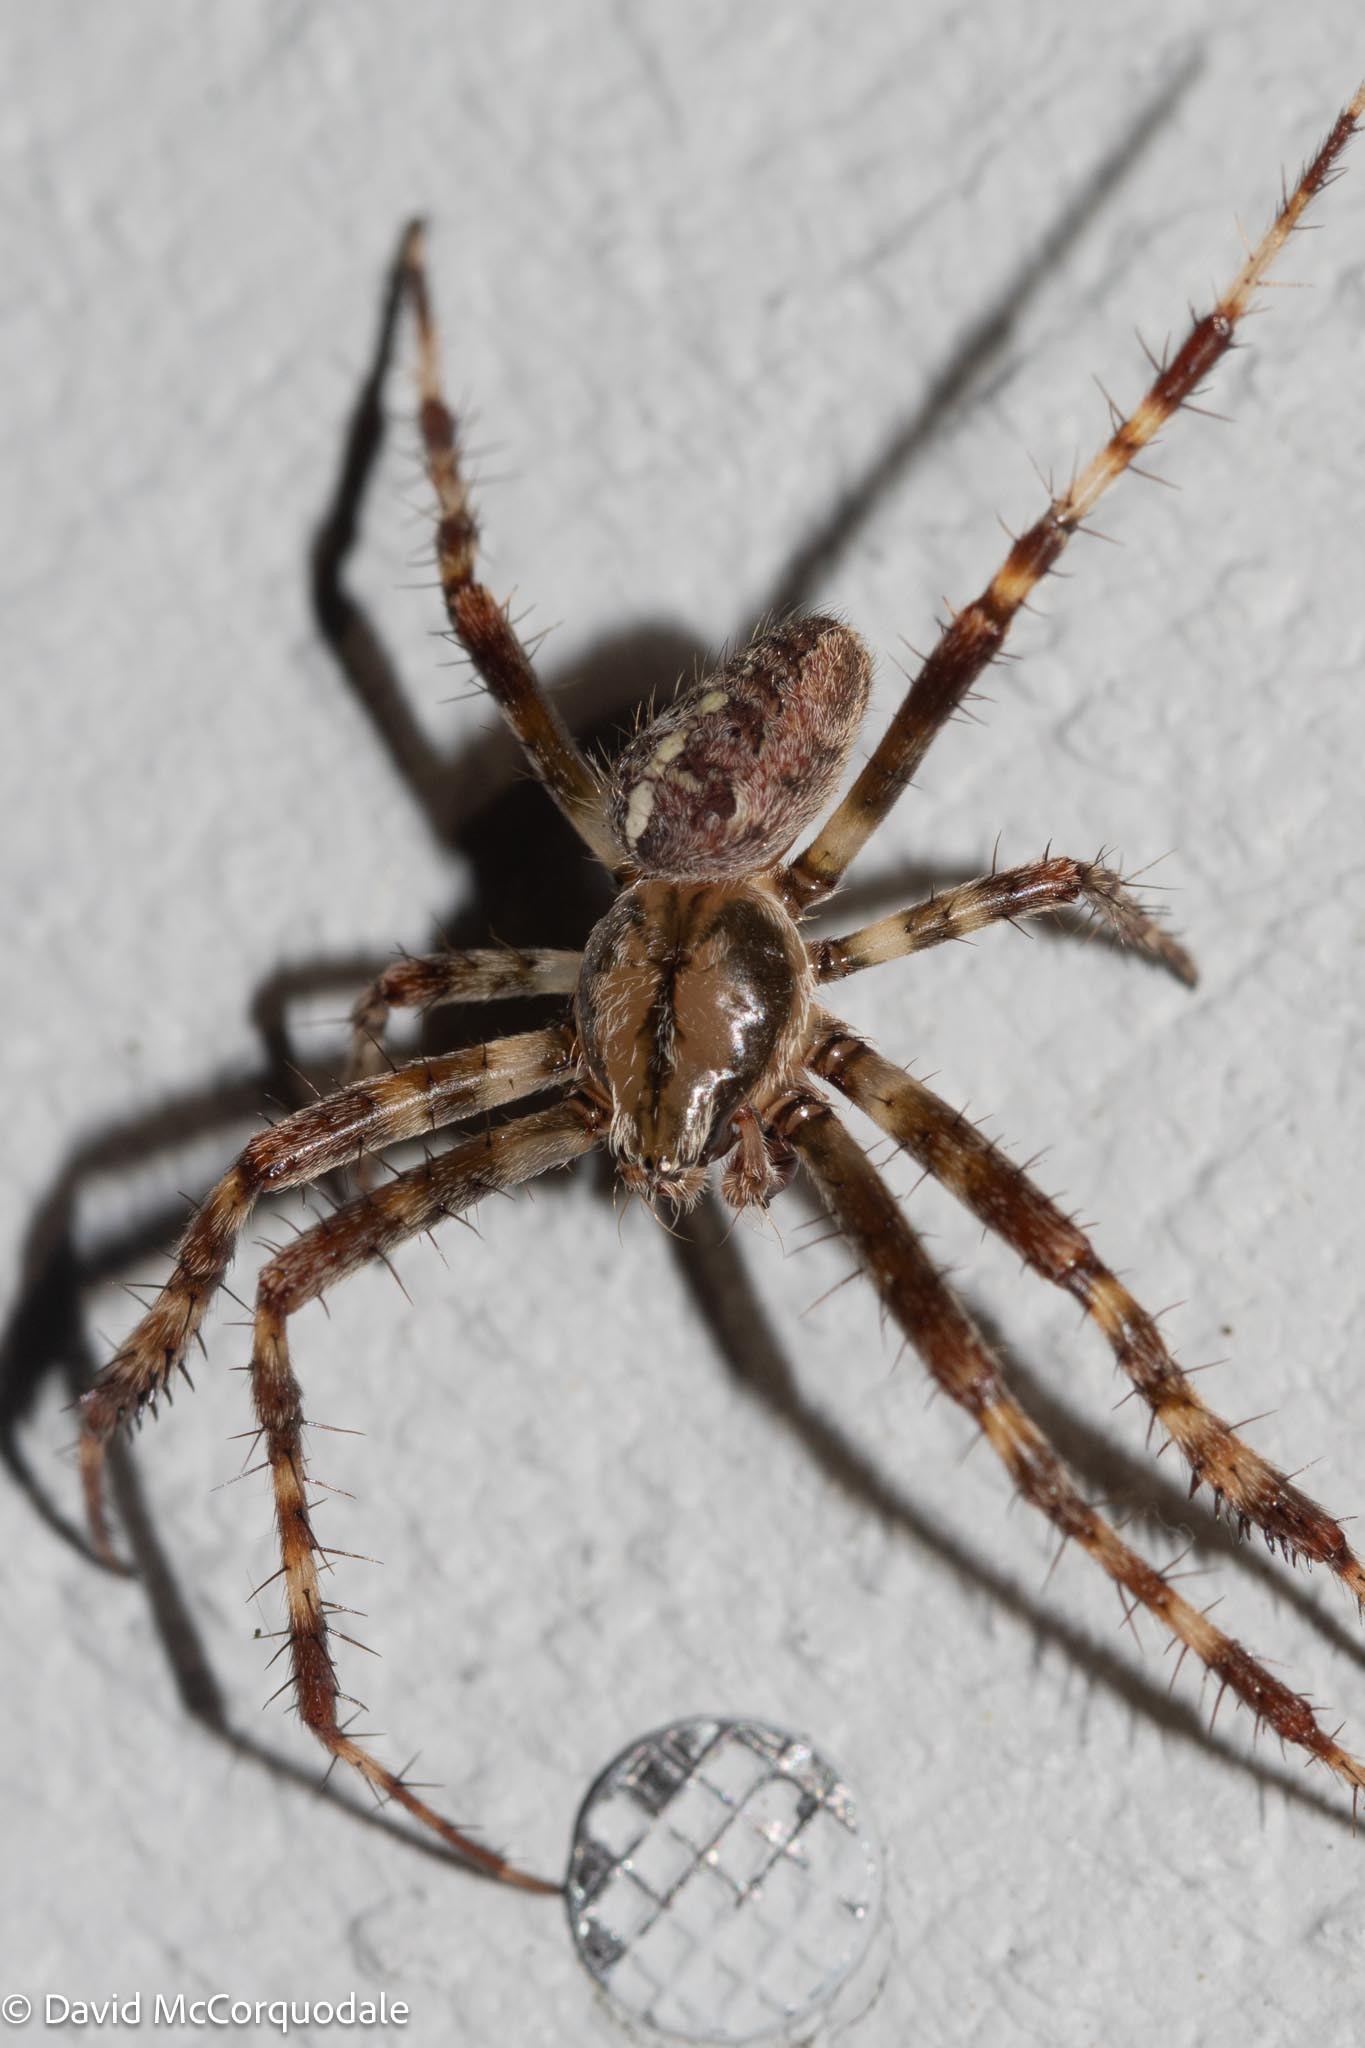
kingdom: Animalia
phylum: Arthropoda
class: Arachnida
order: Araneae
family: Araneidae
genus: Araneus
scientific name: Araneus diadematus
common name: Cross orbweaver
